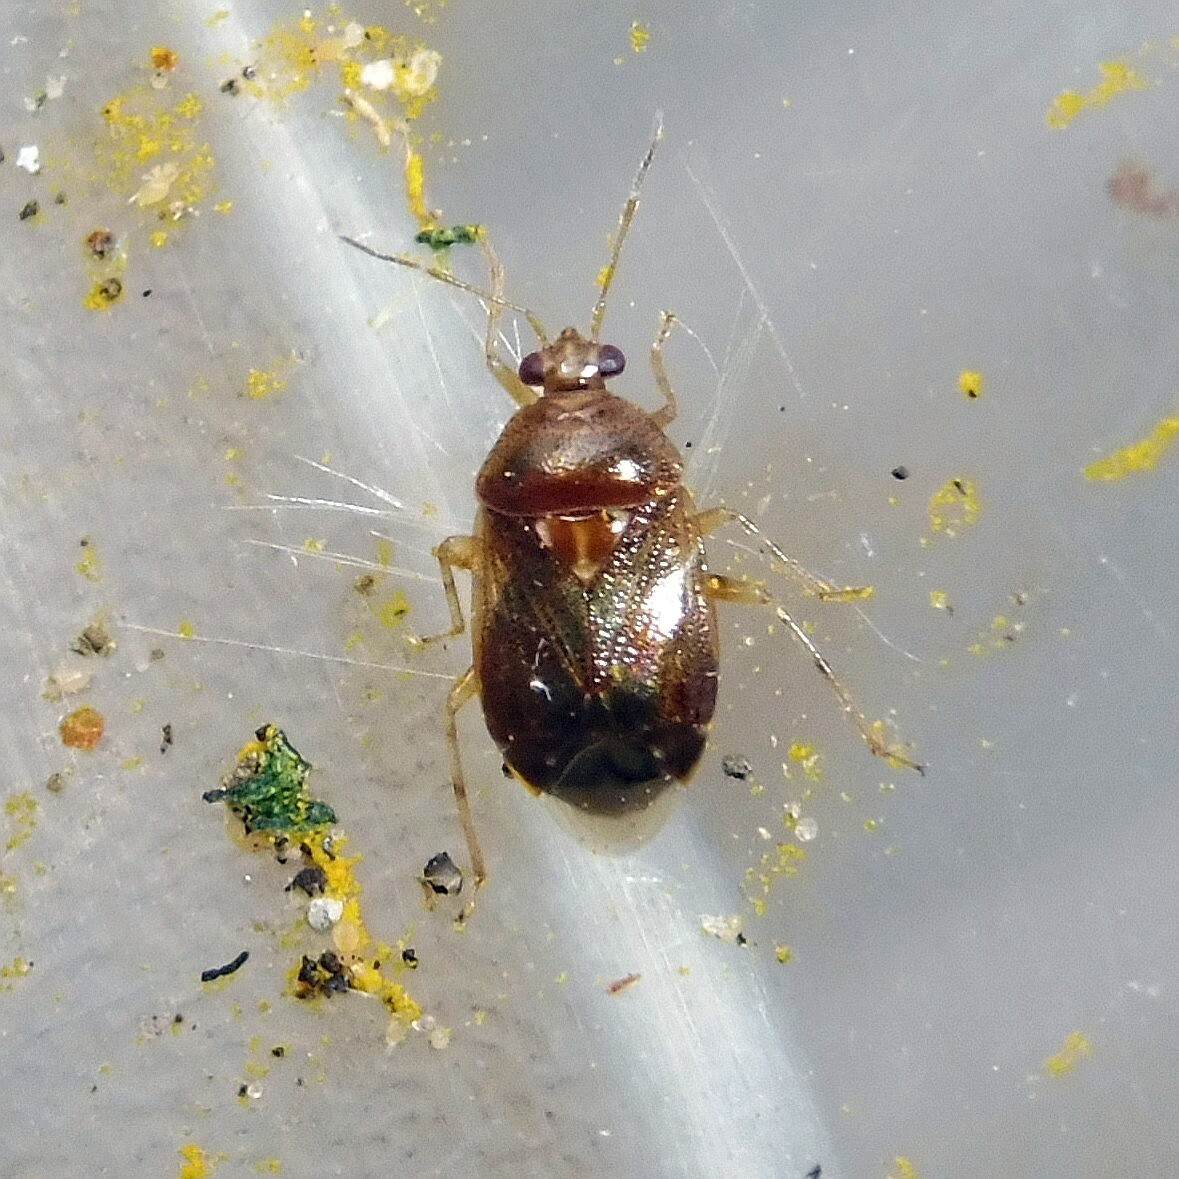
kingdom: Animalia
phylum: Arthropoda
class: Insecta
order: Hemiptera
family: Miridae
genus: Deraeocoris
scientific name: Deraeocoris lutescens
